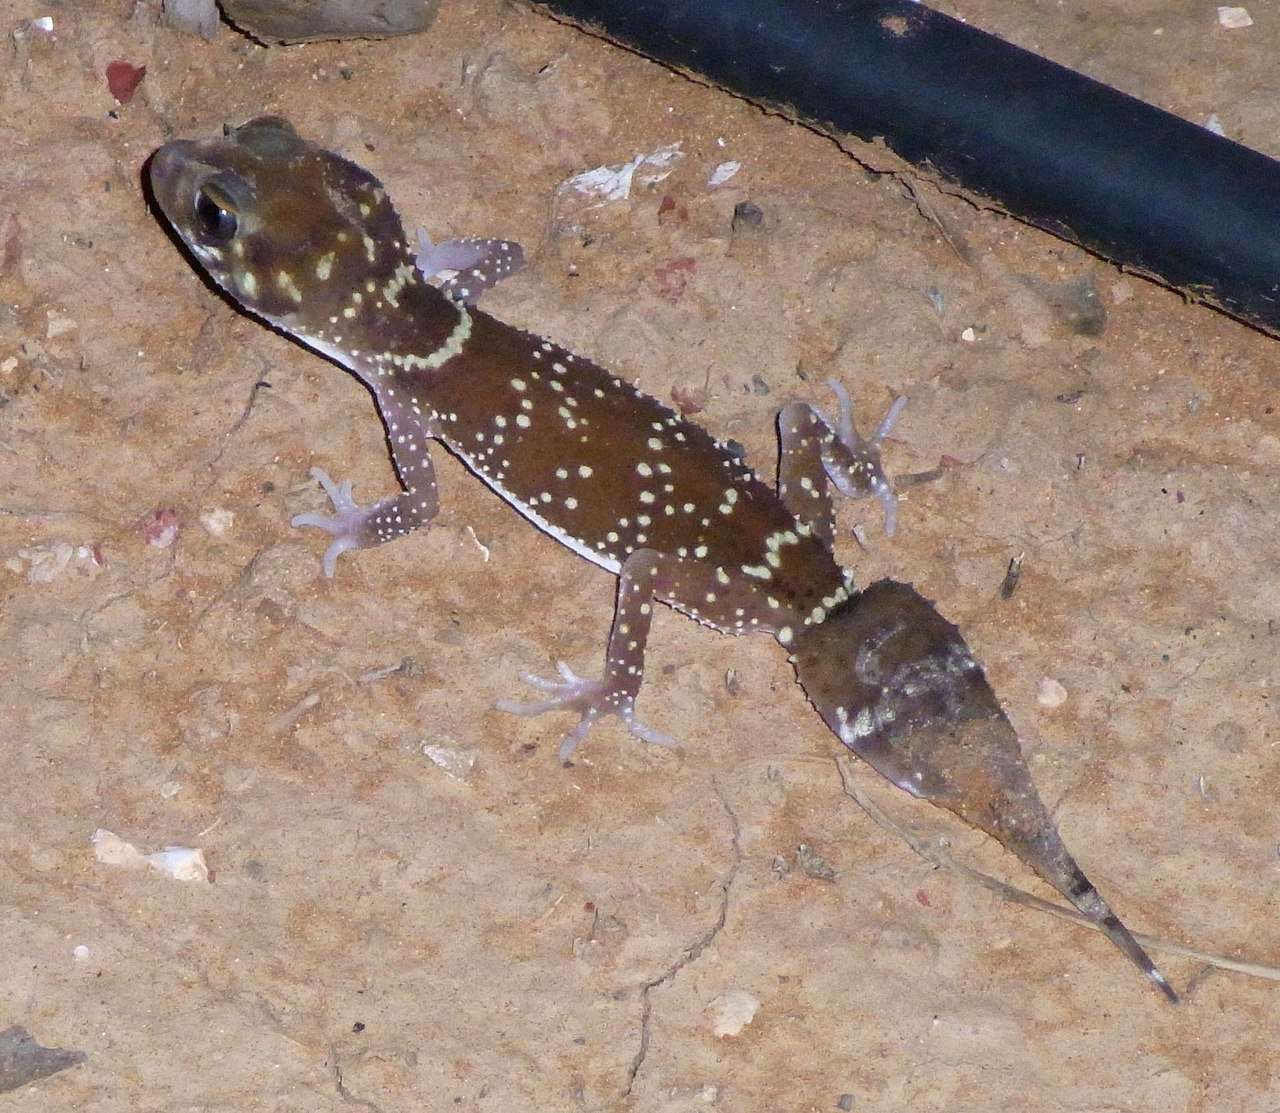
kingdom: Animalia
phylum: Chordata
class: Squamata
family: Carphodactylidae
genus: Underwoodisaurus
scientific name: Underwoodisaurus milii
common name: Barking gecko
